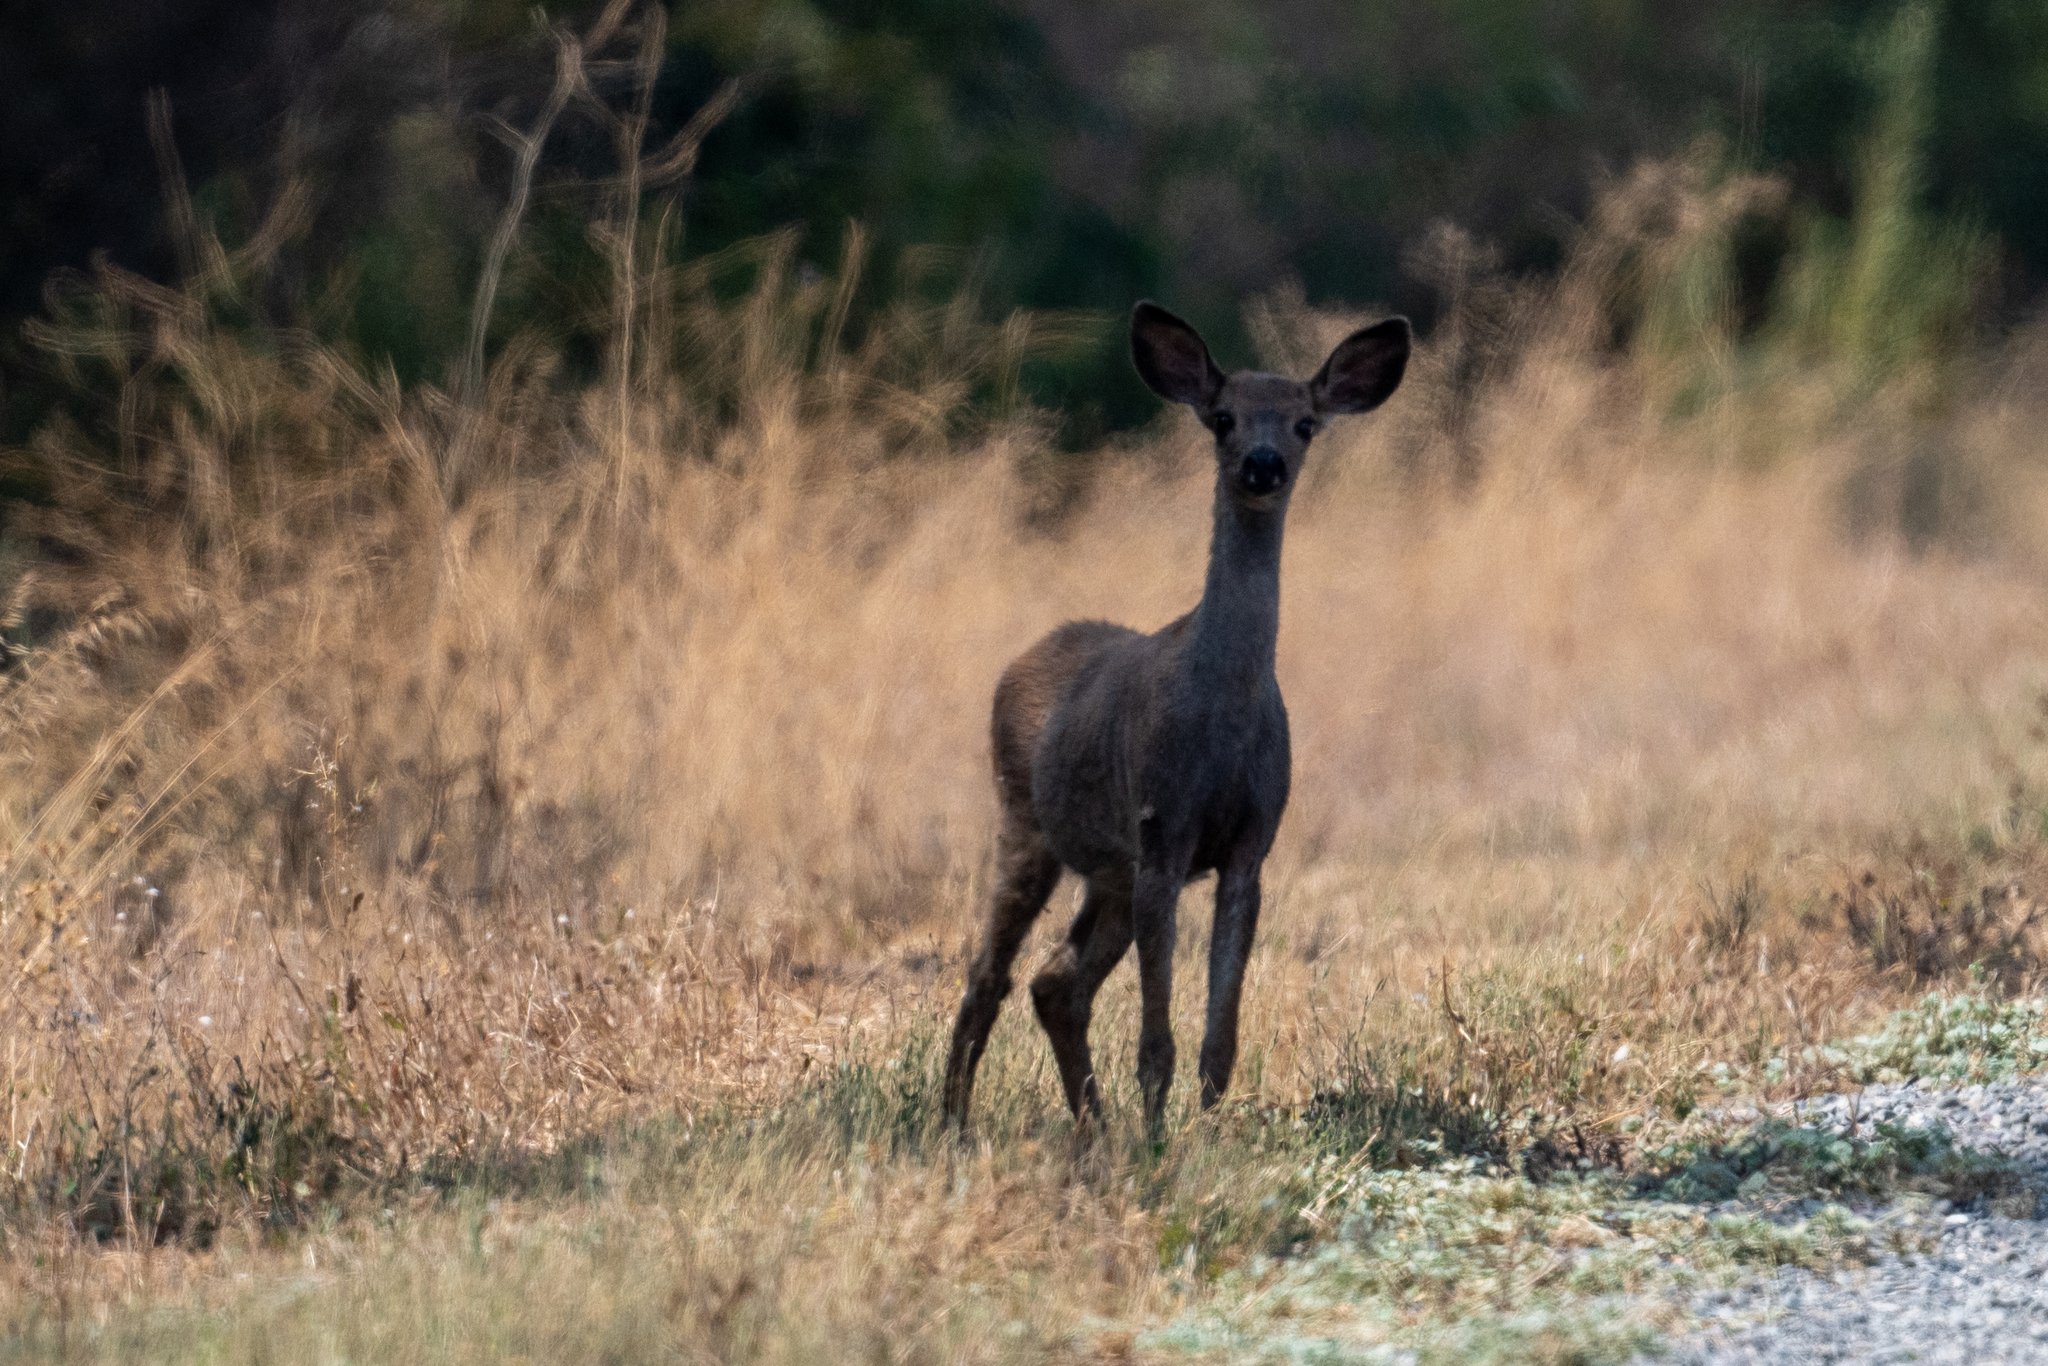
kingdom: Animalia
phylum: Chordata
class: Mammalia
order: Artiodactyla
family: Cervidae
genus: Odocoileus
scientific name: Odocoileus hemionus
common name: Mule deer
